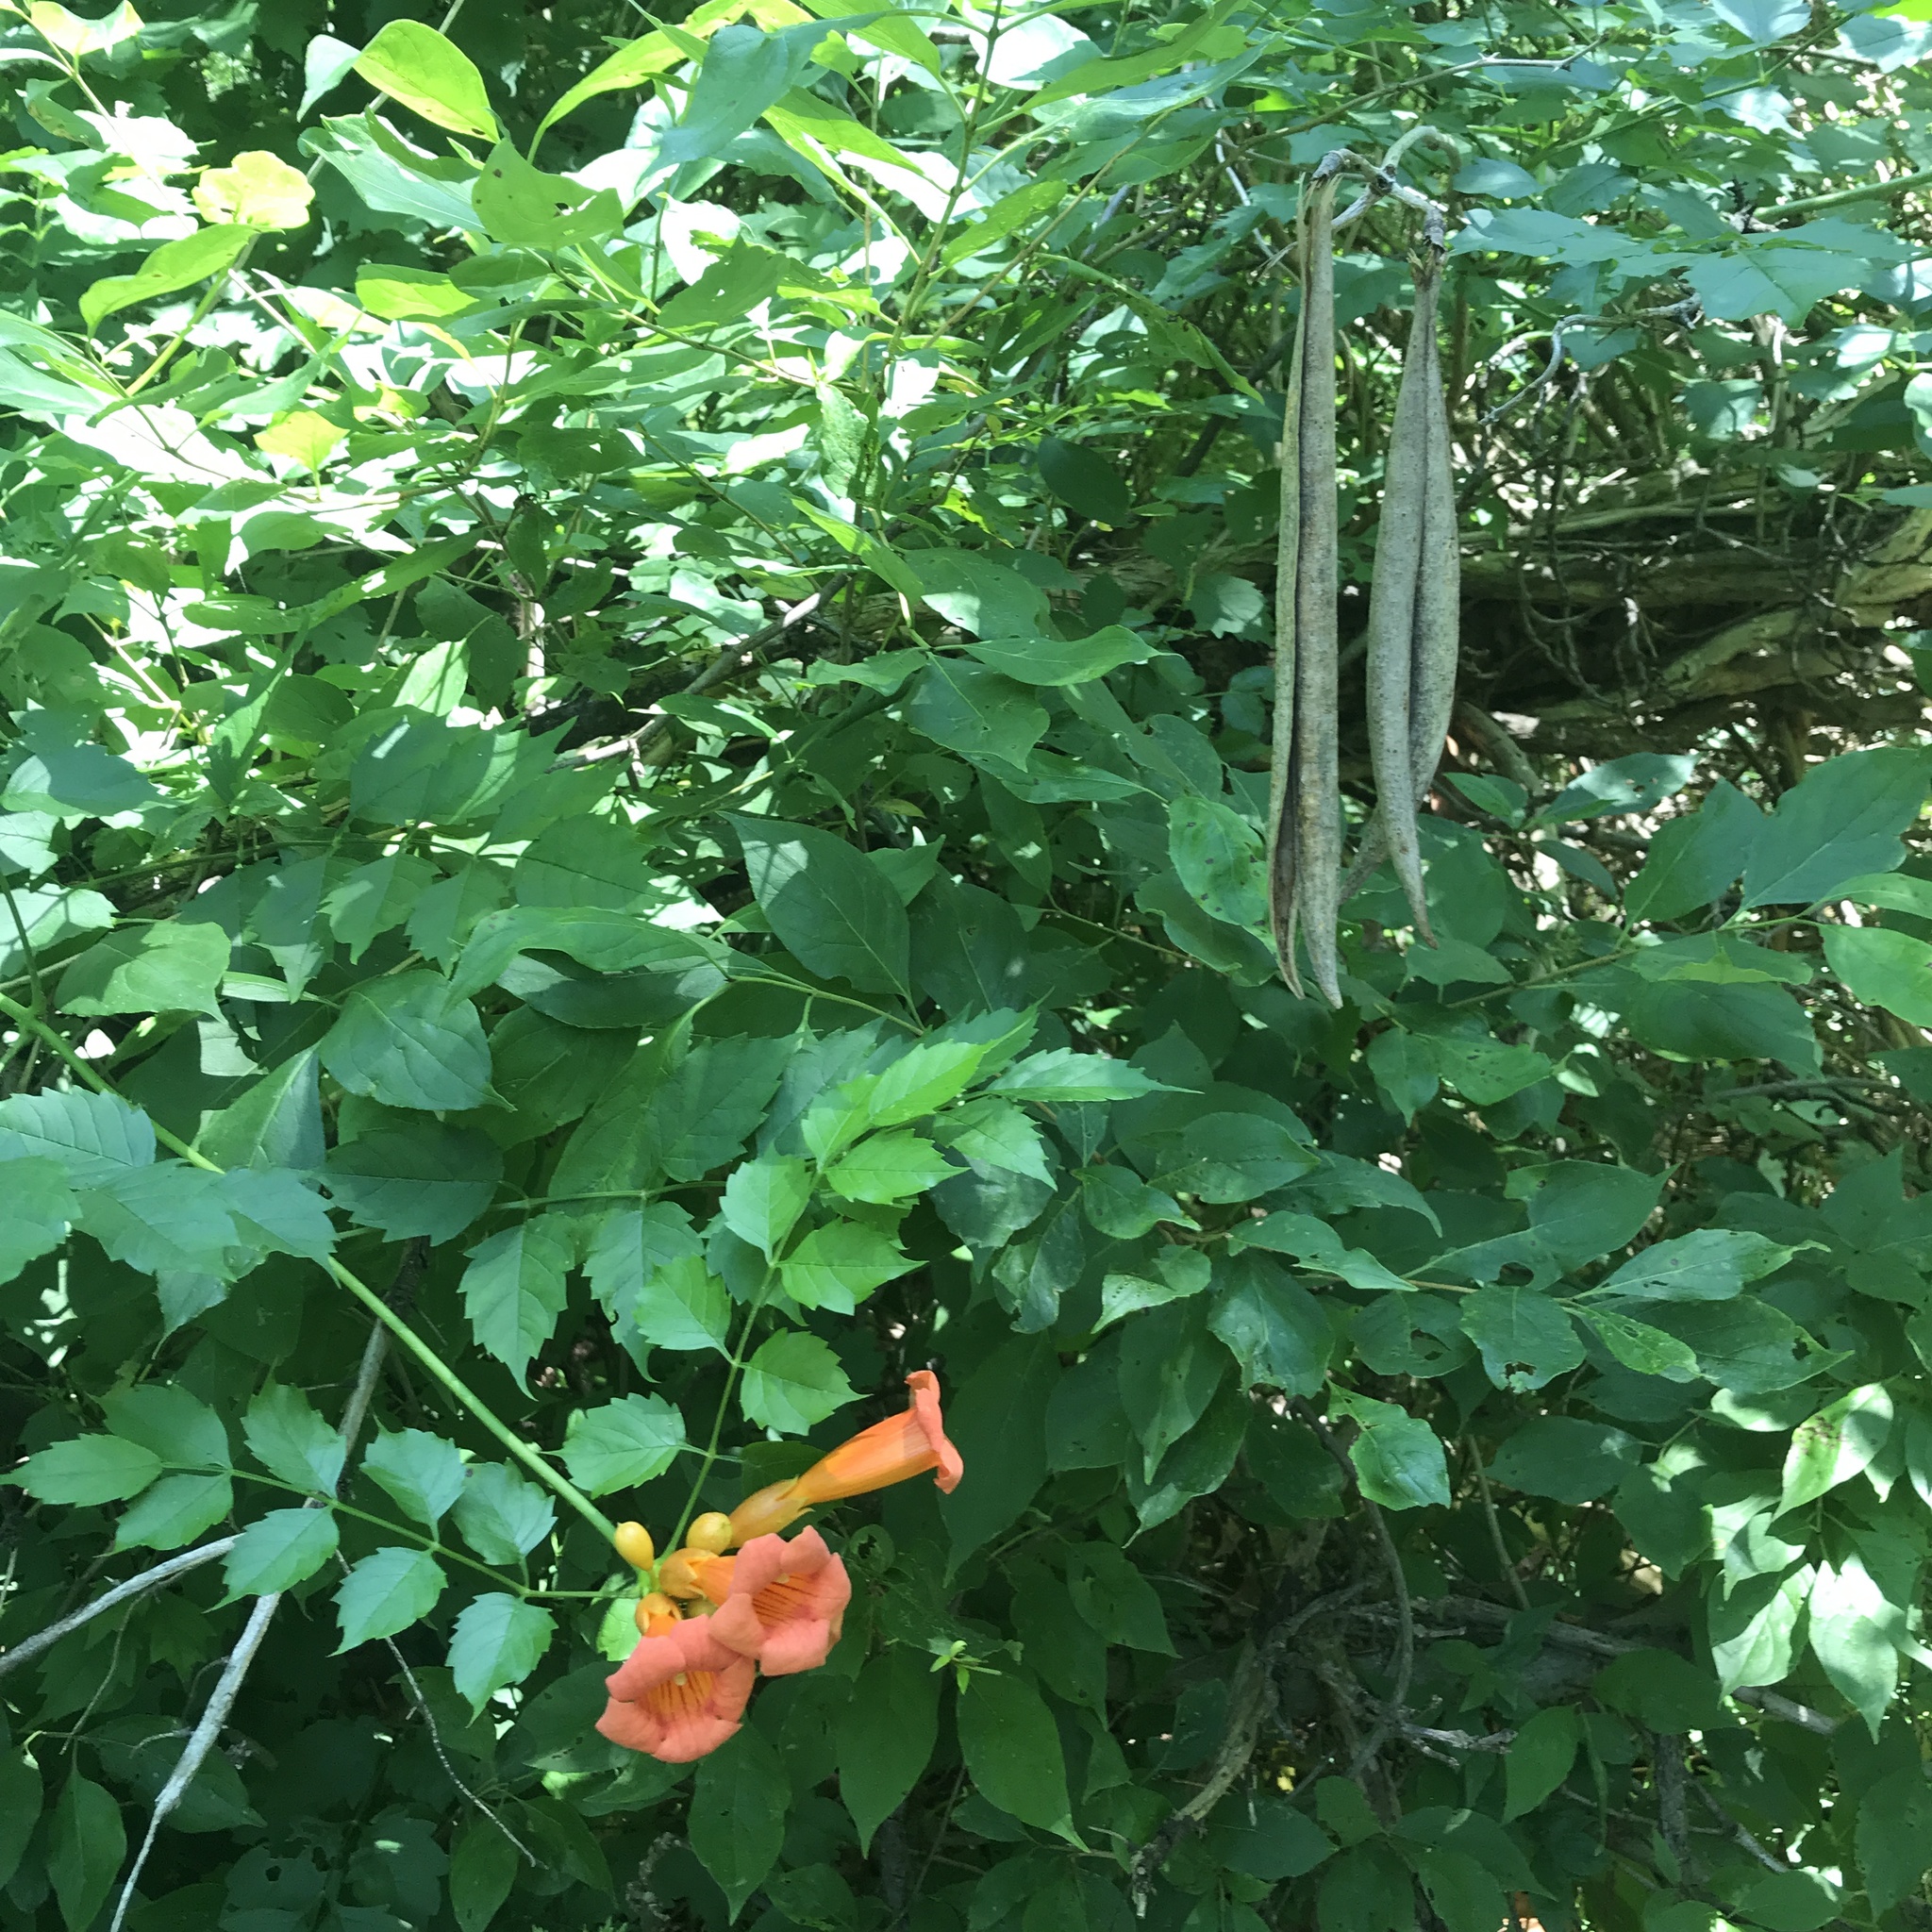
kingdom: Plantae
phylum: Tracheophyta
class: Magnoliopsida
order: Lamiales
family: Bignoniaceae
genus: Campsis
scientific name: Campsis radicans
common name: Trumpet-creeper
